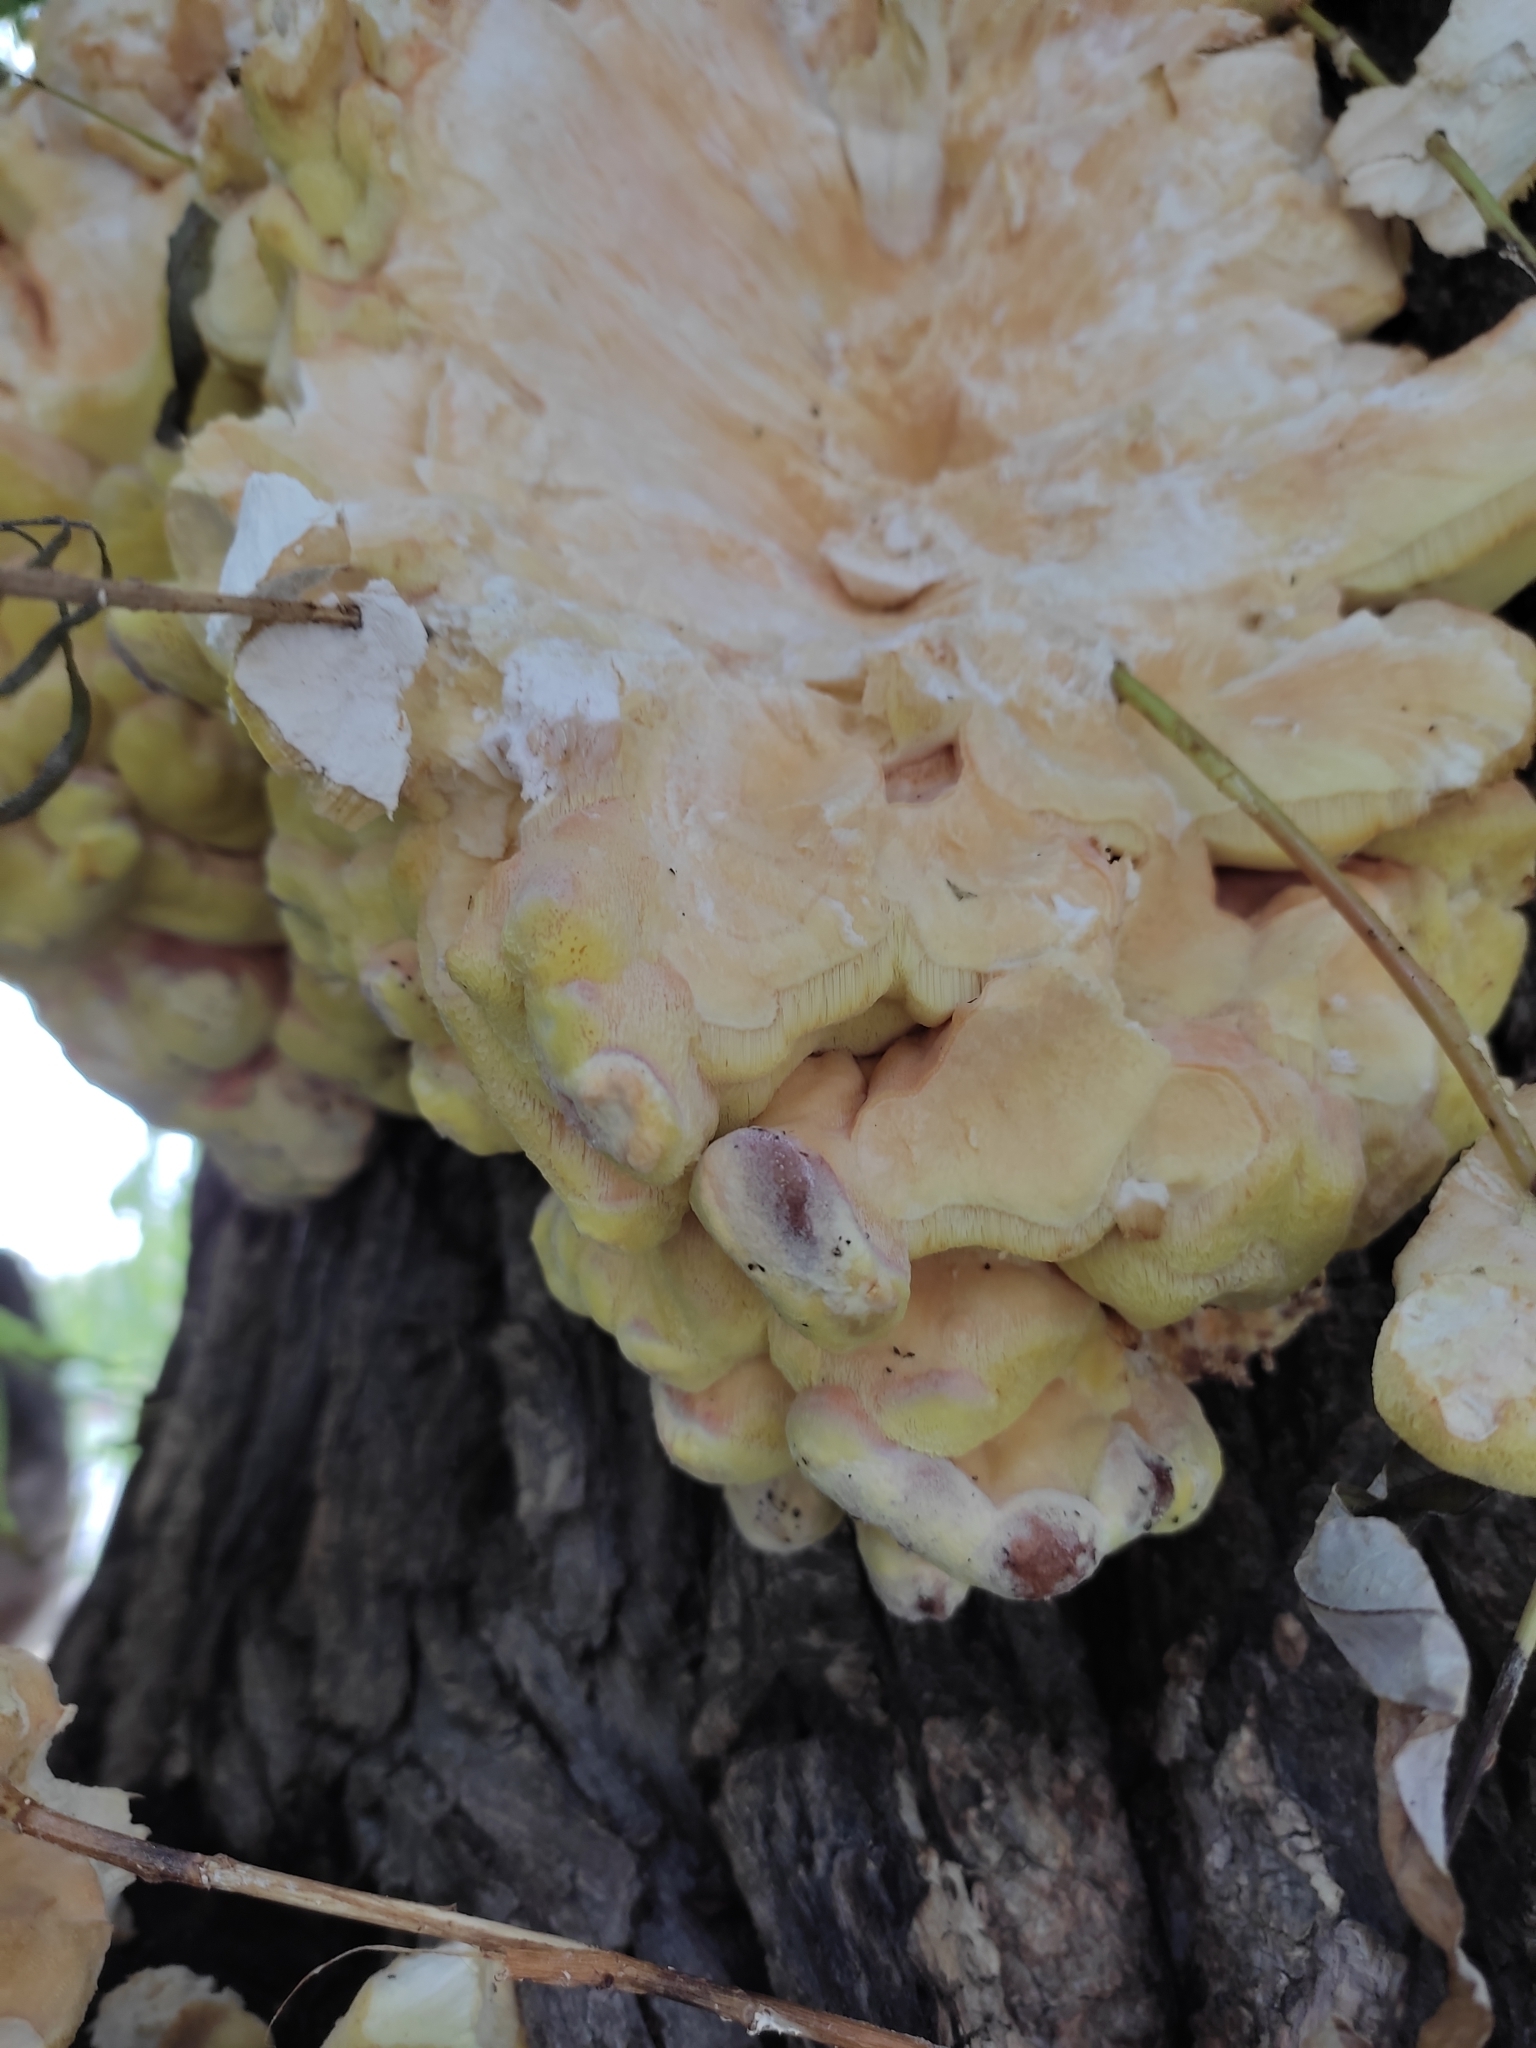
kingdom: Fungi
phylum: Basidiomycota
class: Agaricomycetes
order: Polyporales
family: Laetiporaceae
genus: Laetiporus
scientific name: Laetiporus sulphureus
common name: Chicken of the woods
